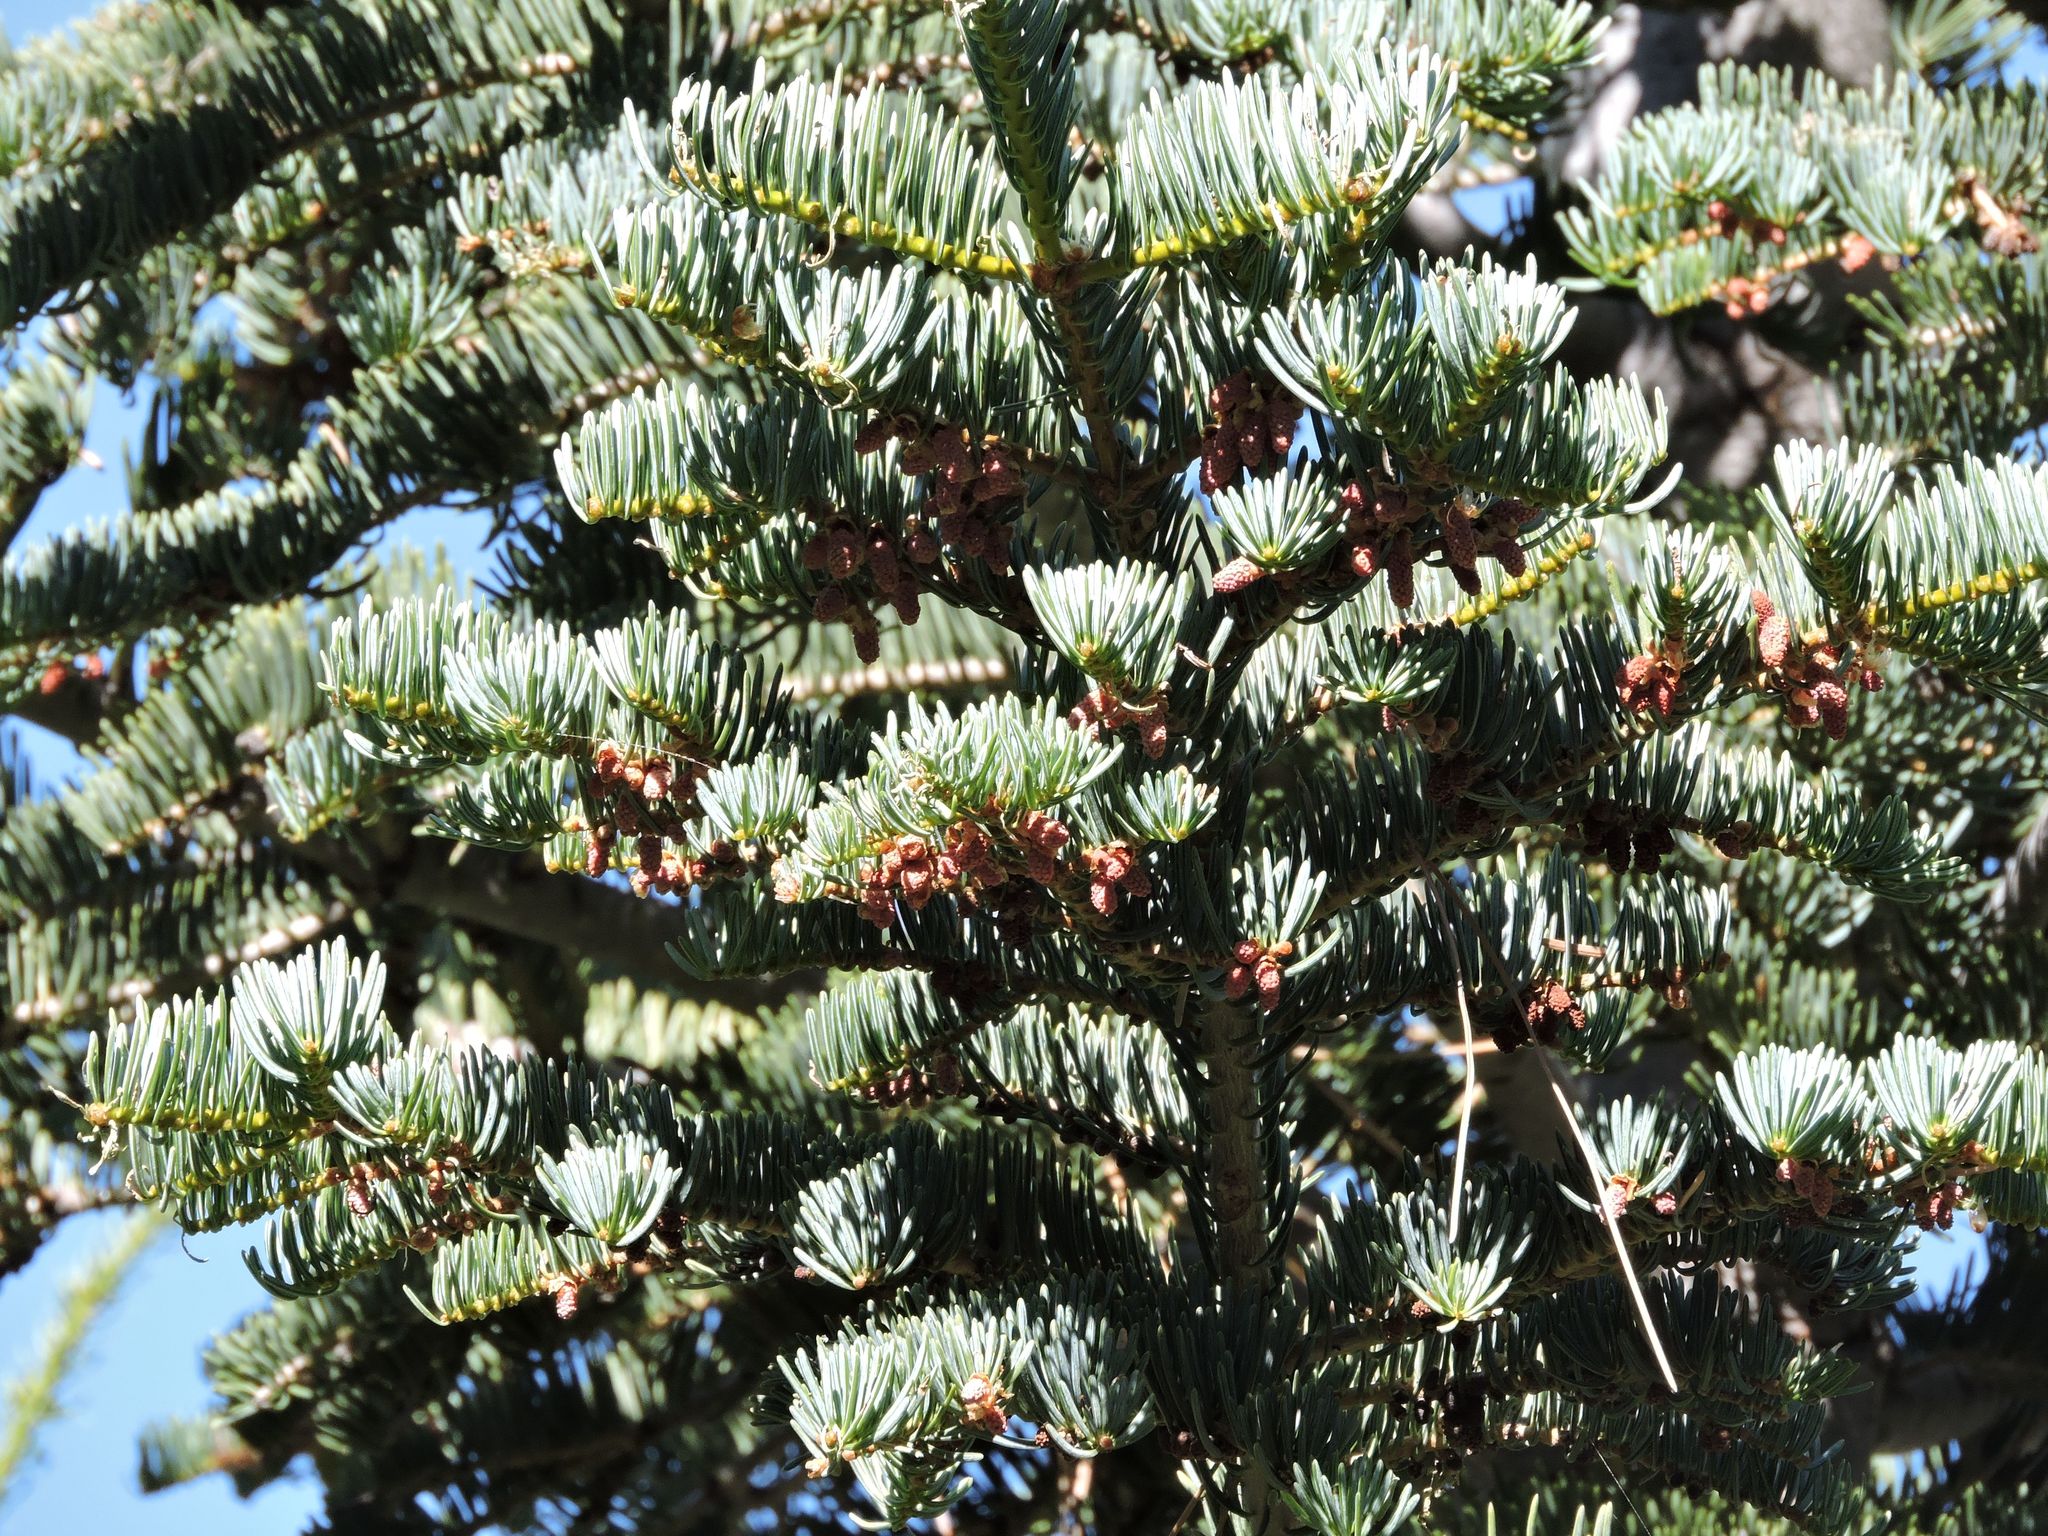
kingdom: Plantae
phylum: Tracheophyta
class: Pinopsida
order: Pinales
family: Pinaceae
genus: Abies
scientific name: Abies concolor
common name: Colorado fir
